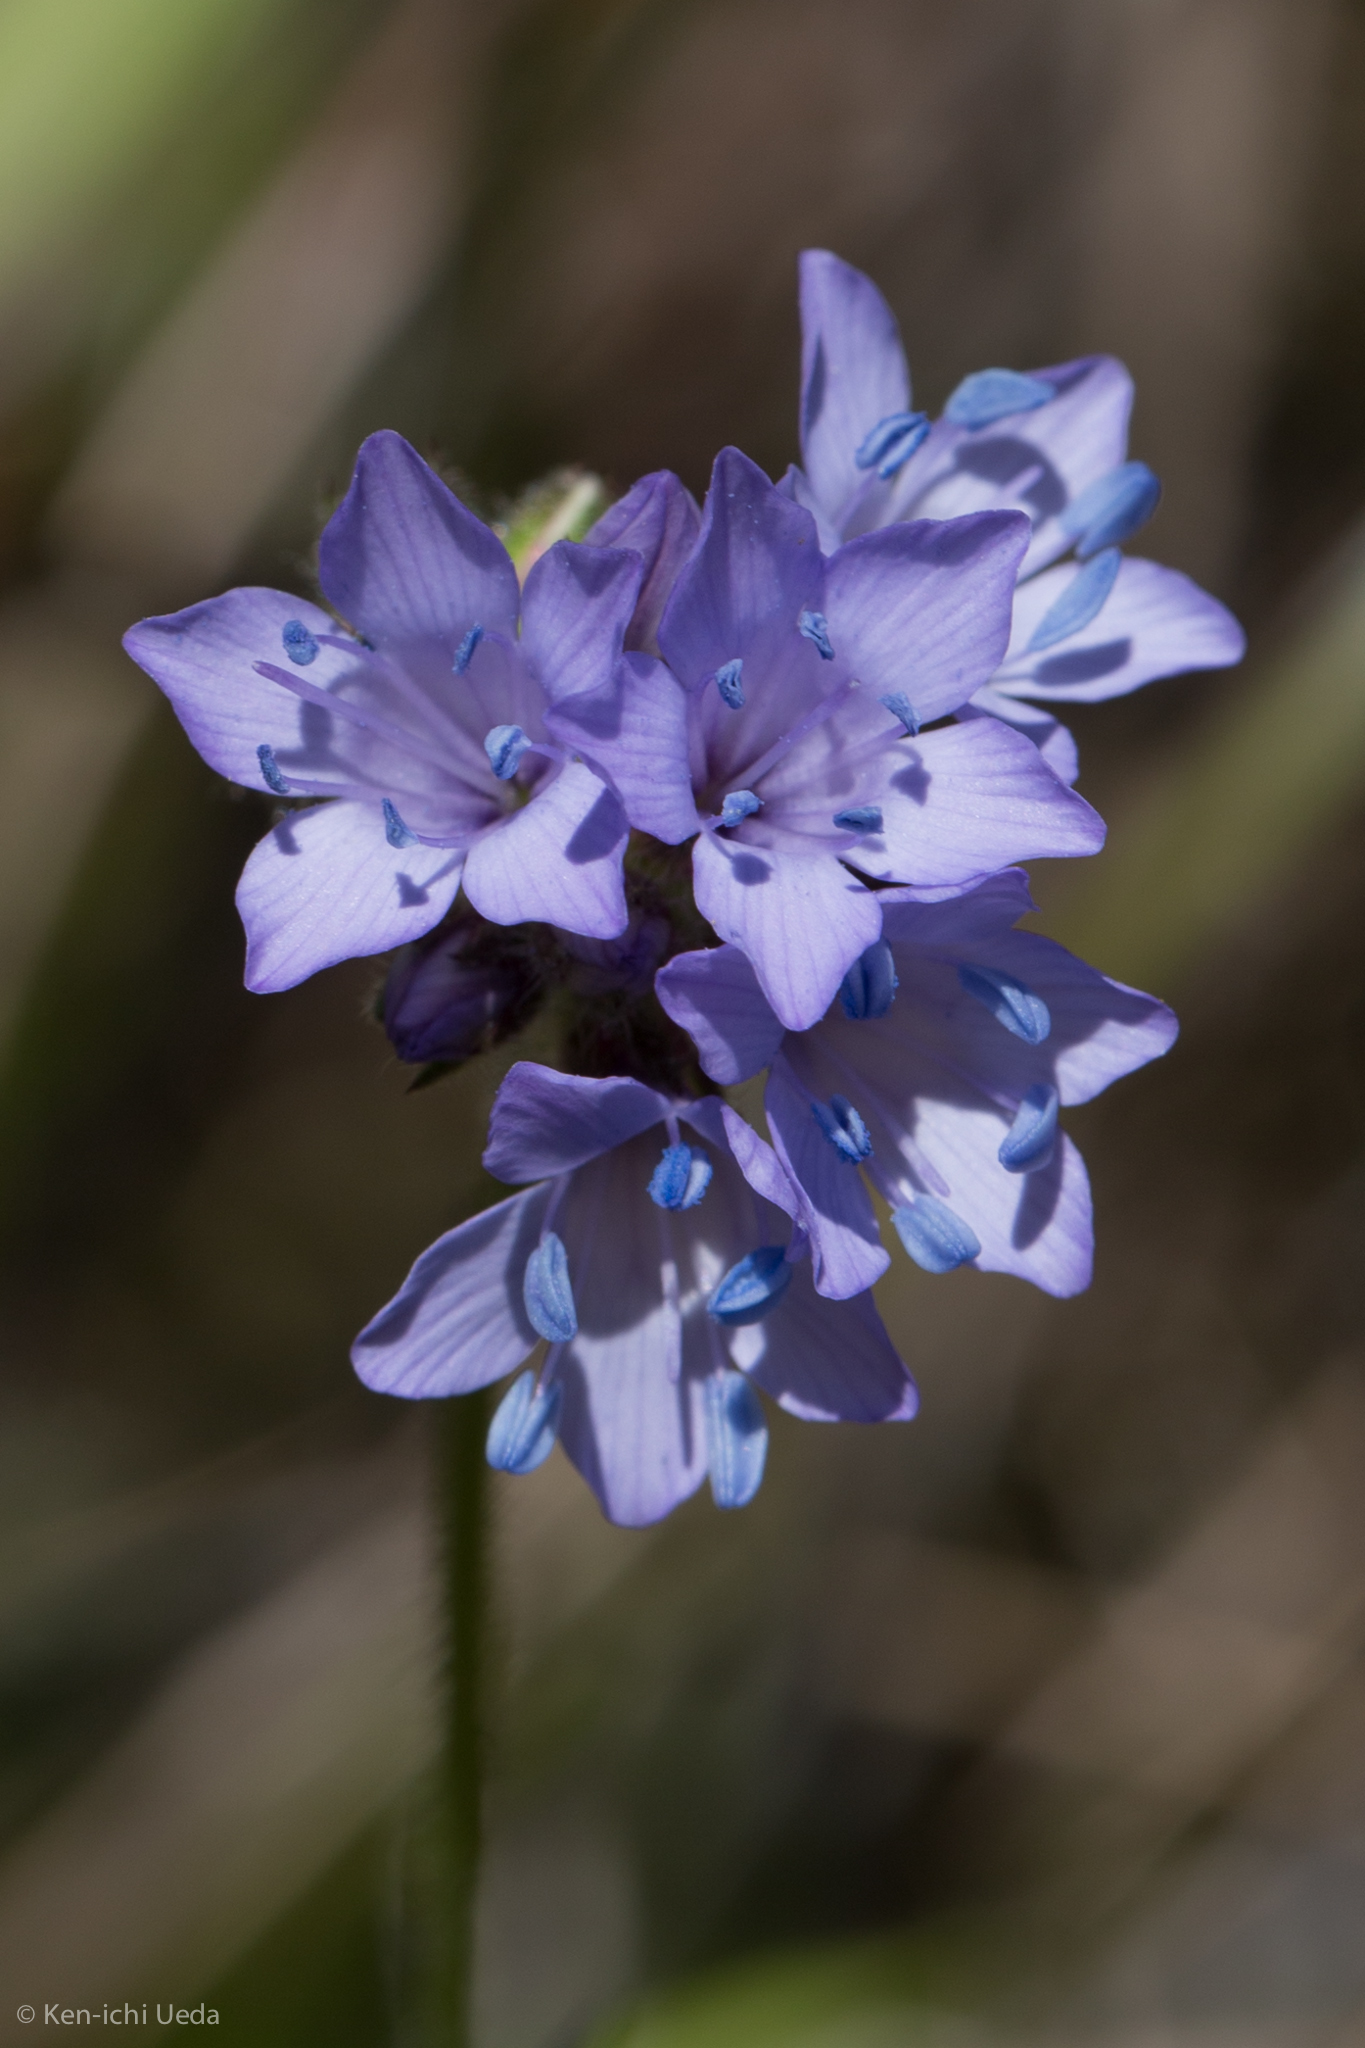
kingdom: Plantae
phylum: Tracheophyta
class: Magnoliopsida
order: Ericales
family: Polemoniaceae
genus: Gilia
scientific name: Gilia achilleifolia
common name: California gily-flower
